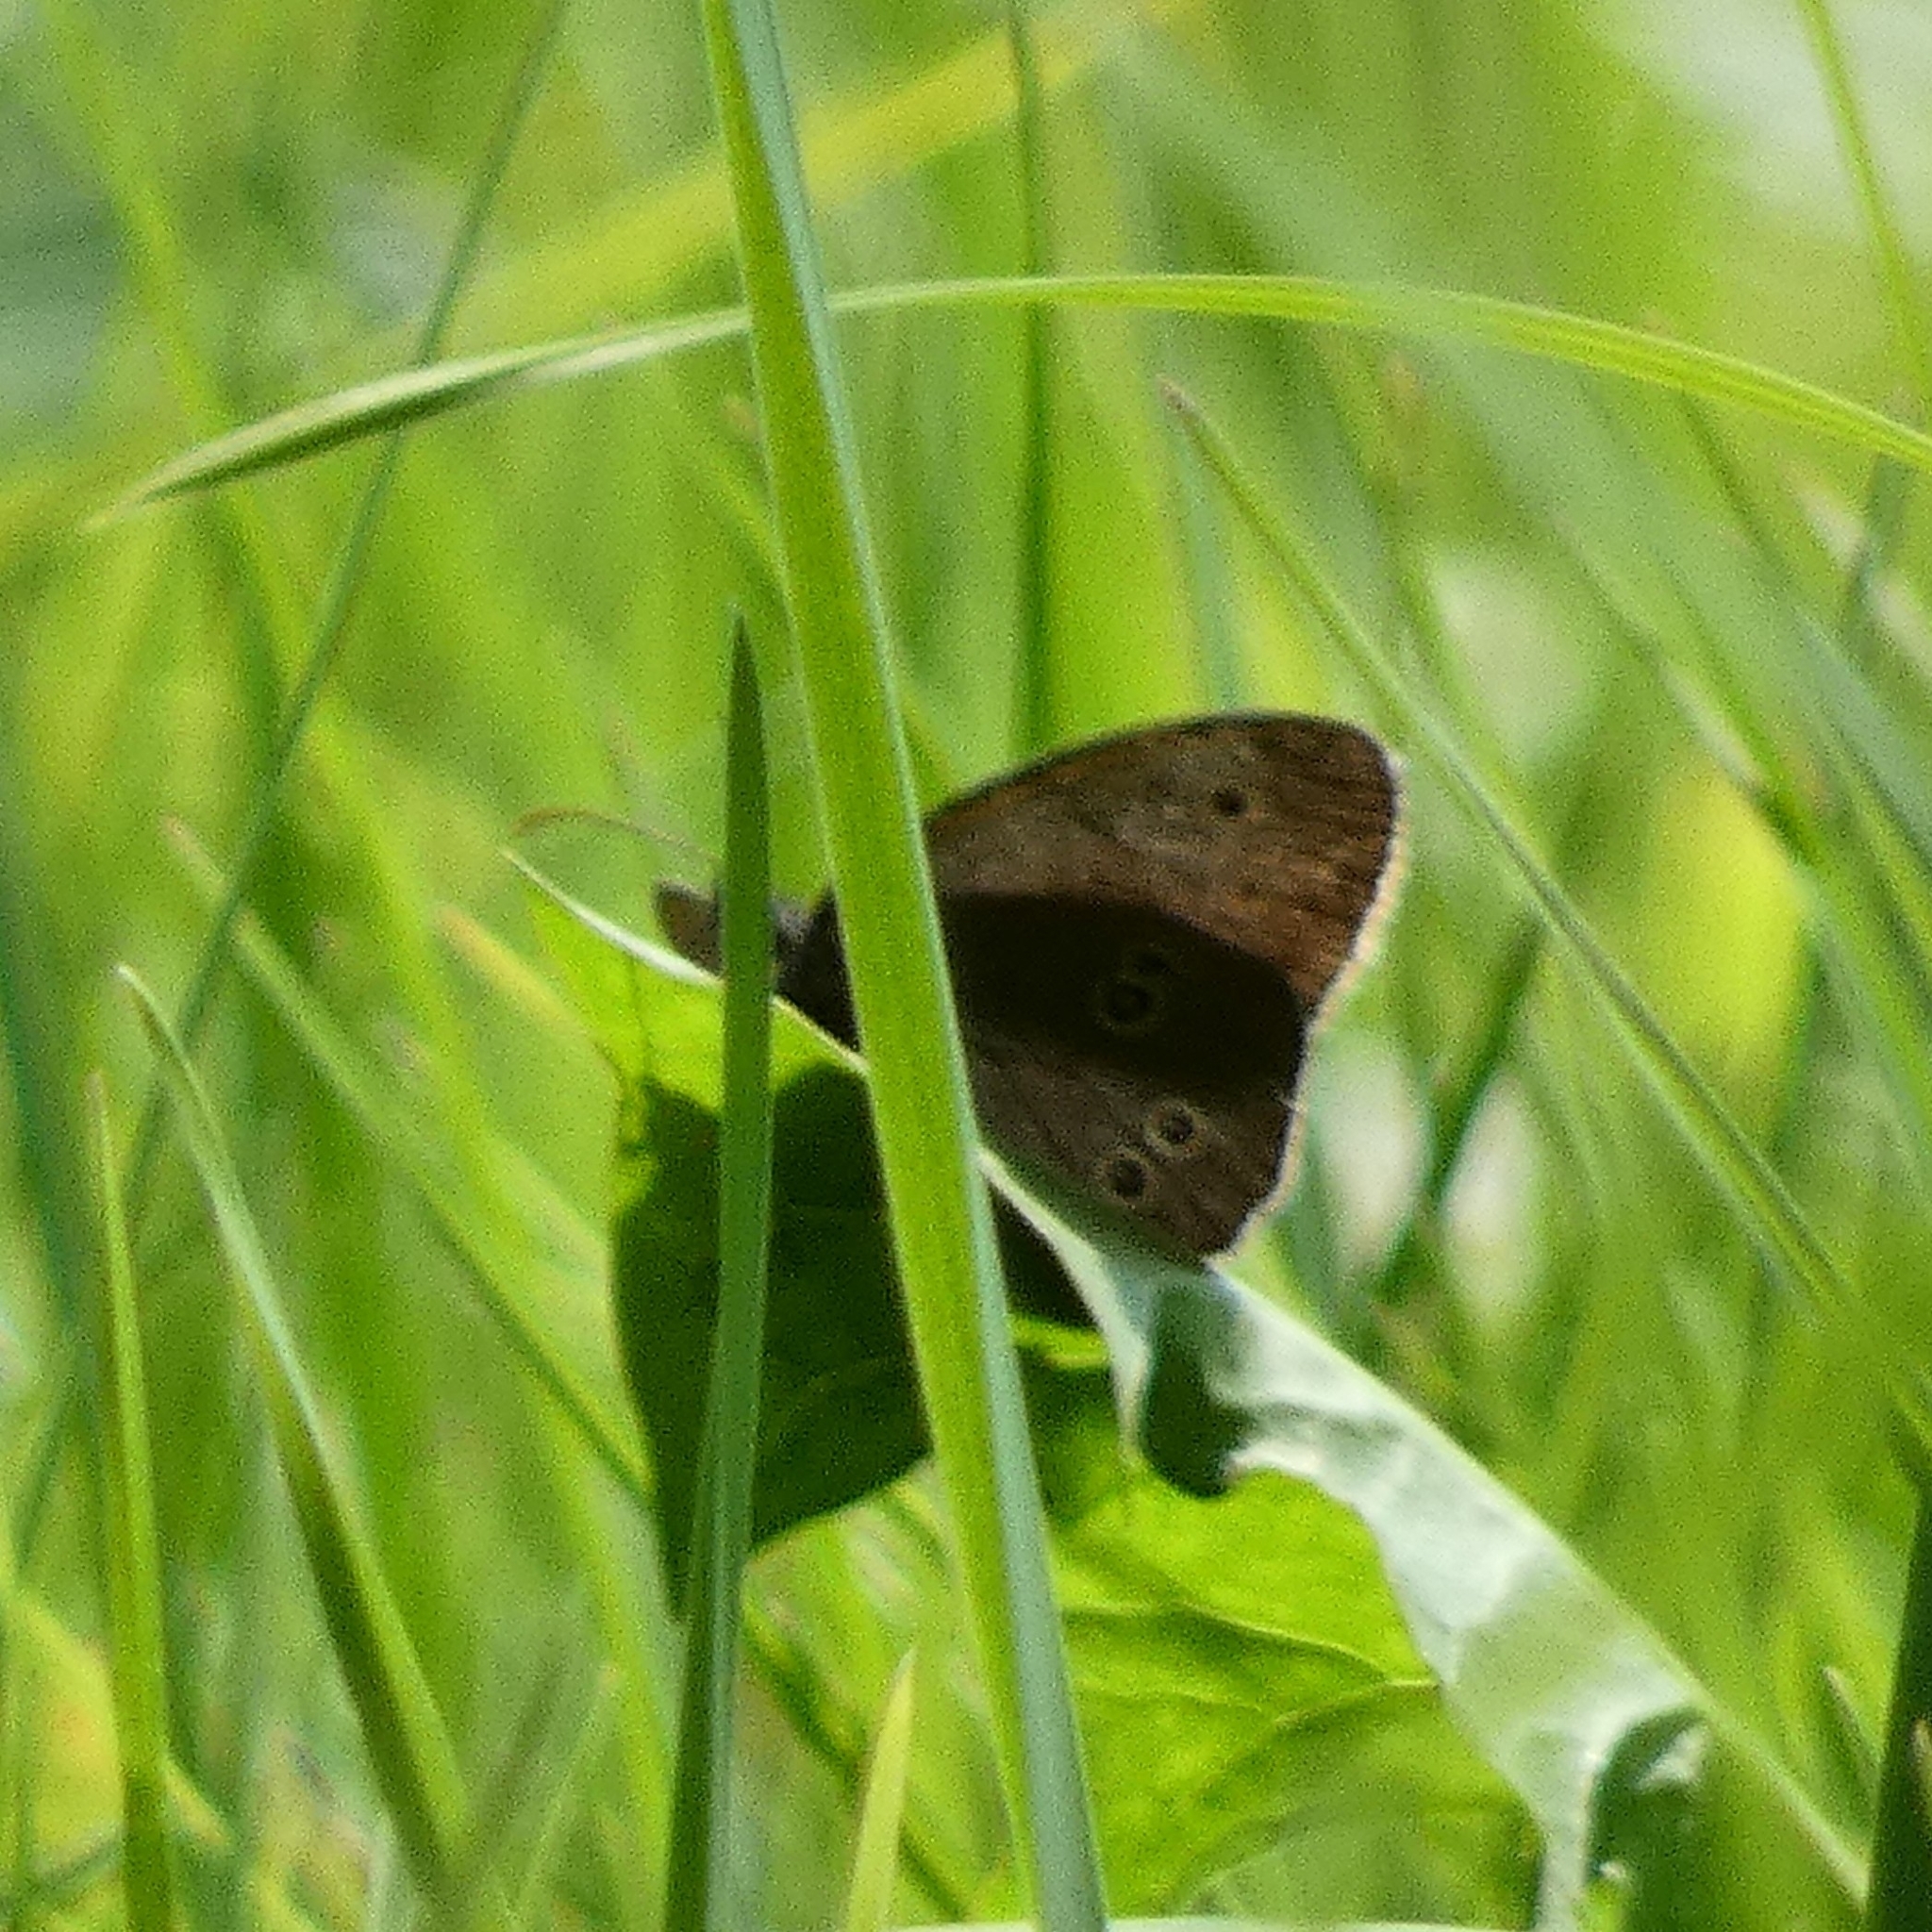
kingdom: Animalia
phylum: Arthropoda
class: Insecta
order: Lepidoptera
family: Nymphalidae
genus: Aphantopus
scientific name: Aphantopus hyperantus
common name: Ringlet
